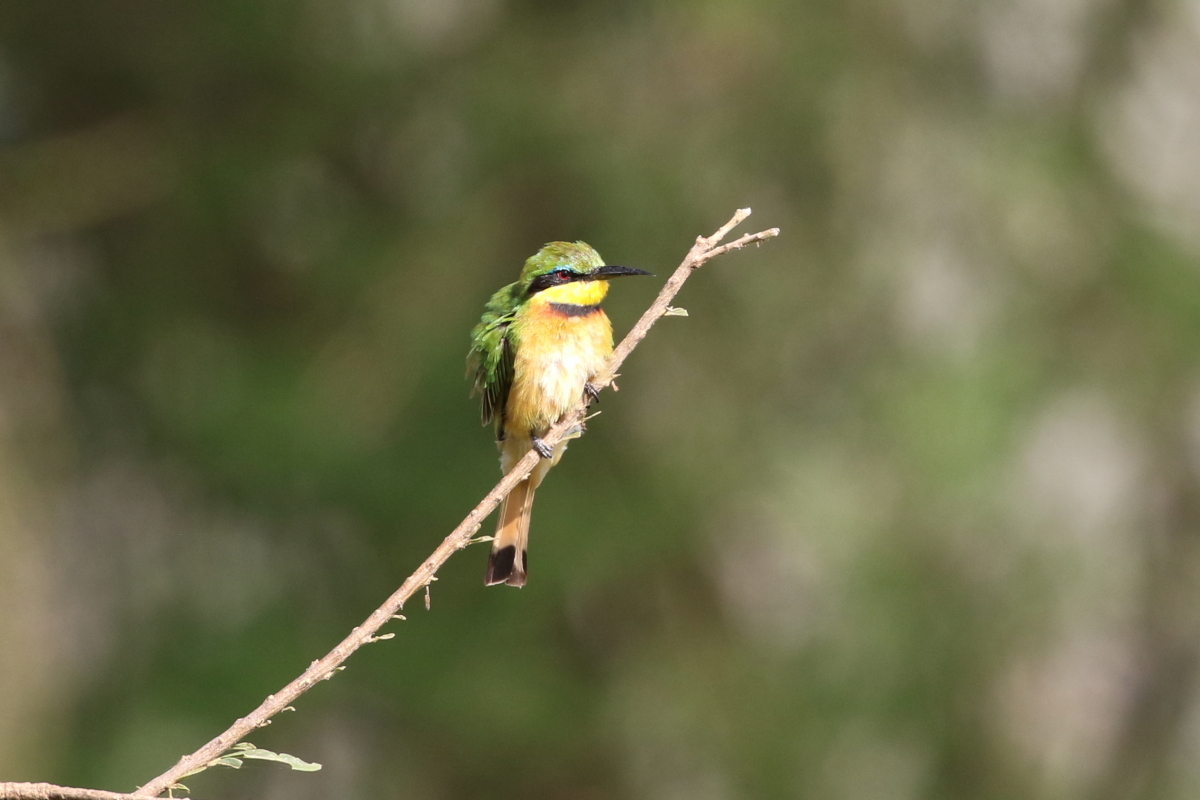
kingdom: Animalia
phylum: Chordata
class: Aves
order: Coraciiformes
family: Meropidae
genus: Merops
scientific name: Merops pusillus
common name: Little bee-eater
